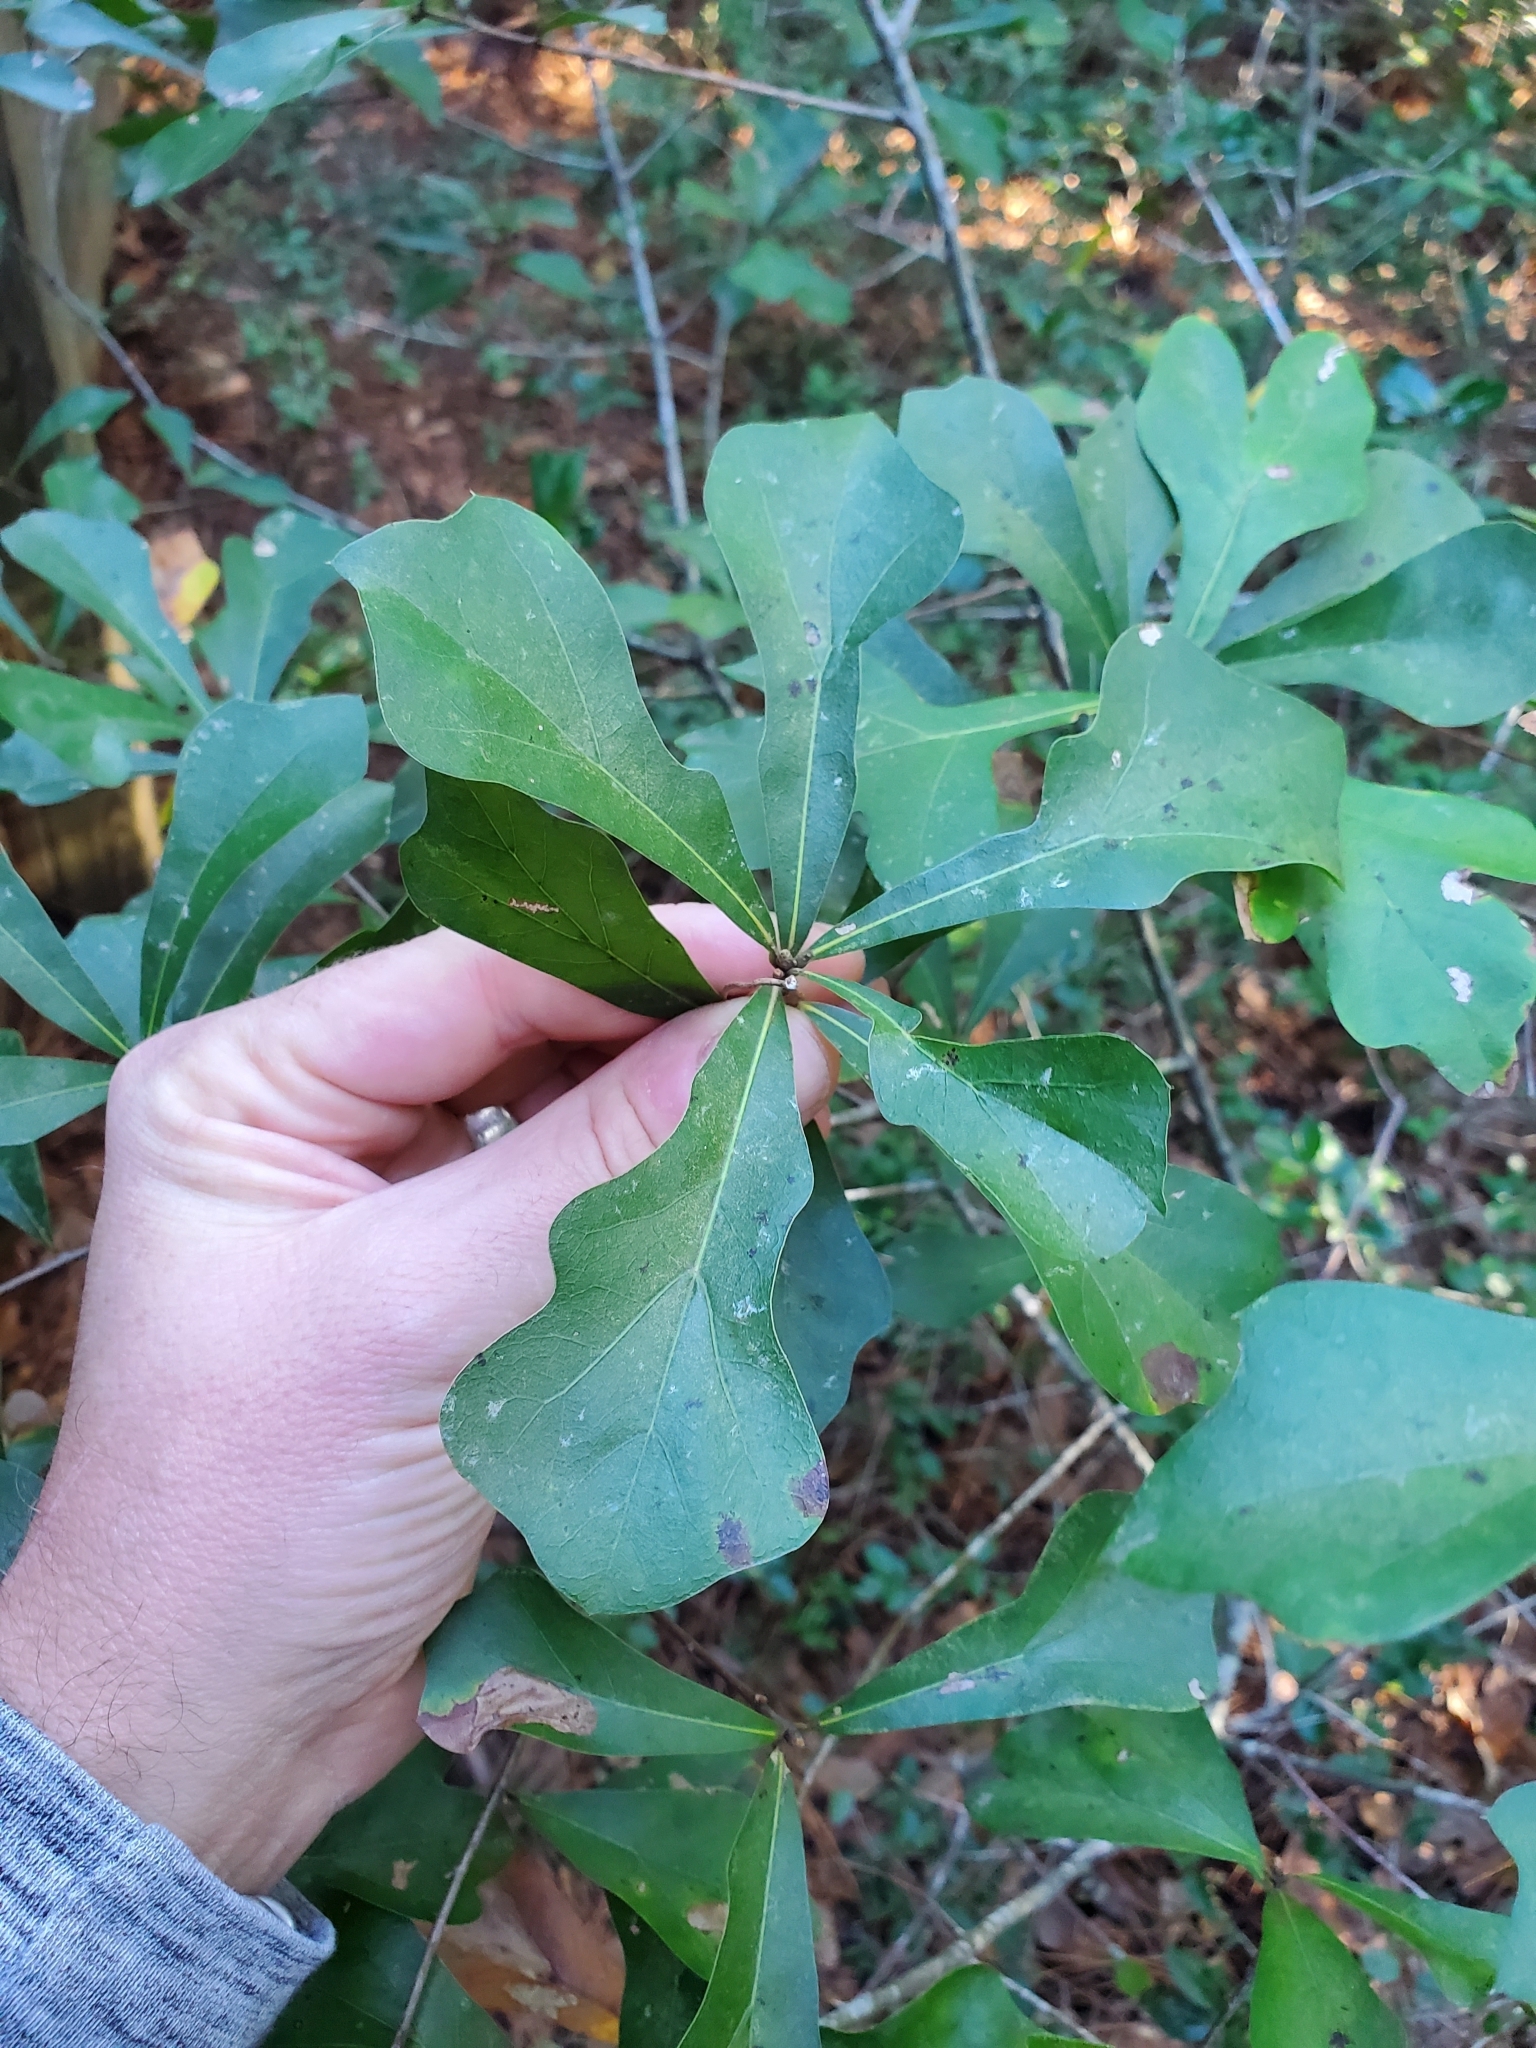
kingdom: Plantae
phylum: Tracheophyta
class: Magnoliopsida
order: Fagales
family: Fagaceae
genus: Quercus
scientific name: Quercus nigra
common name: Water oak
